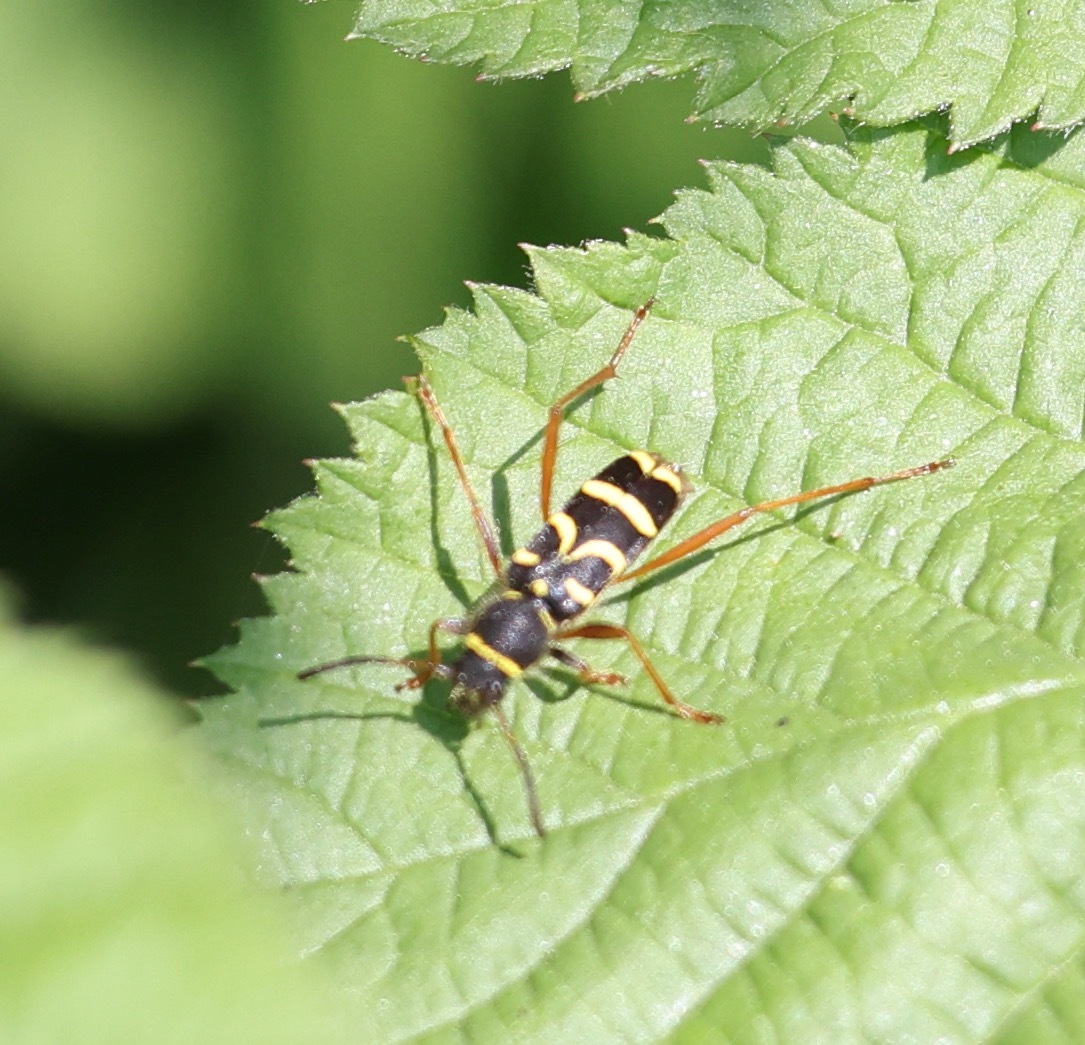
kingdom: Animalia
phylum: Arthropoda
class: Insecta
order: Coleoptera
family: Cerambycidae
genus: Clytus
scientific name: Clytus arietis
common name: Wasp beetle
